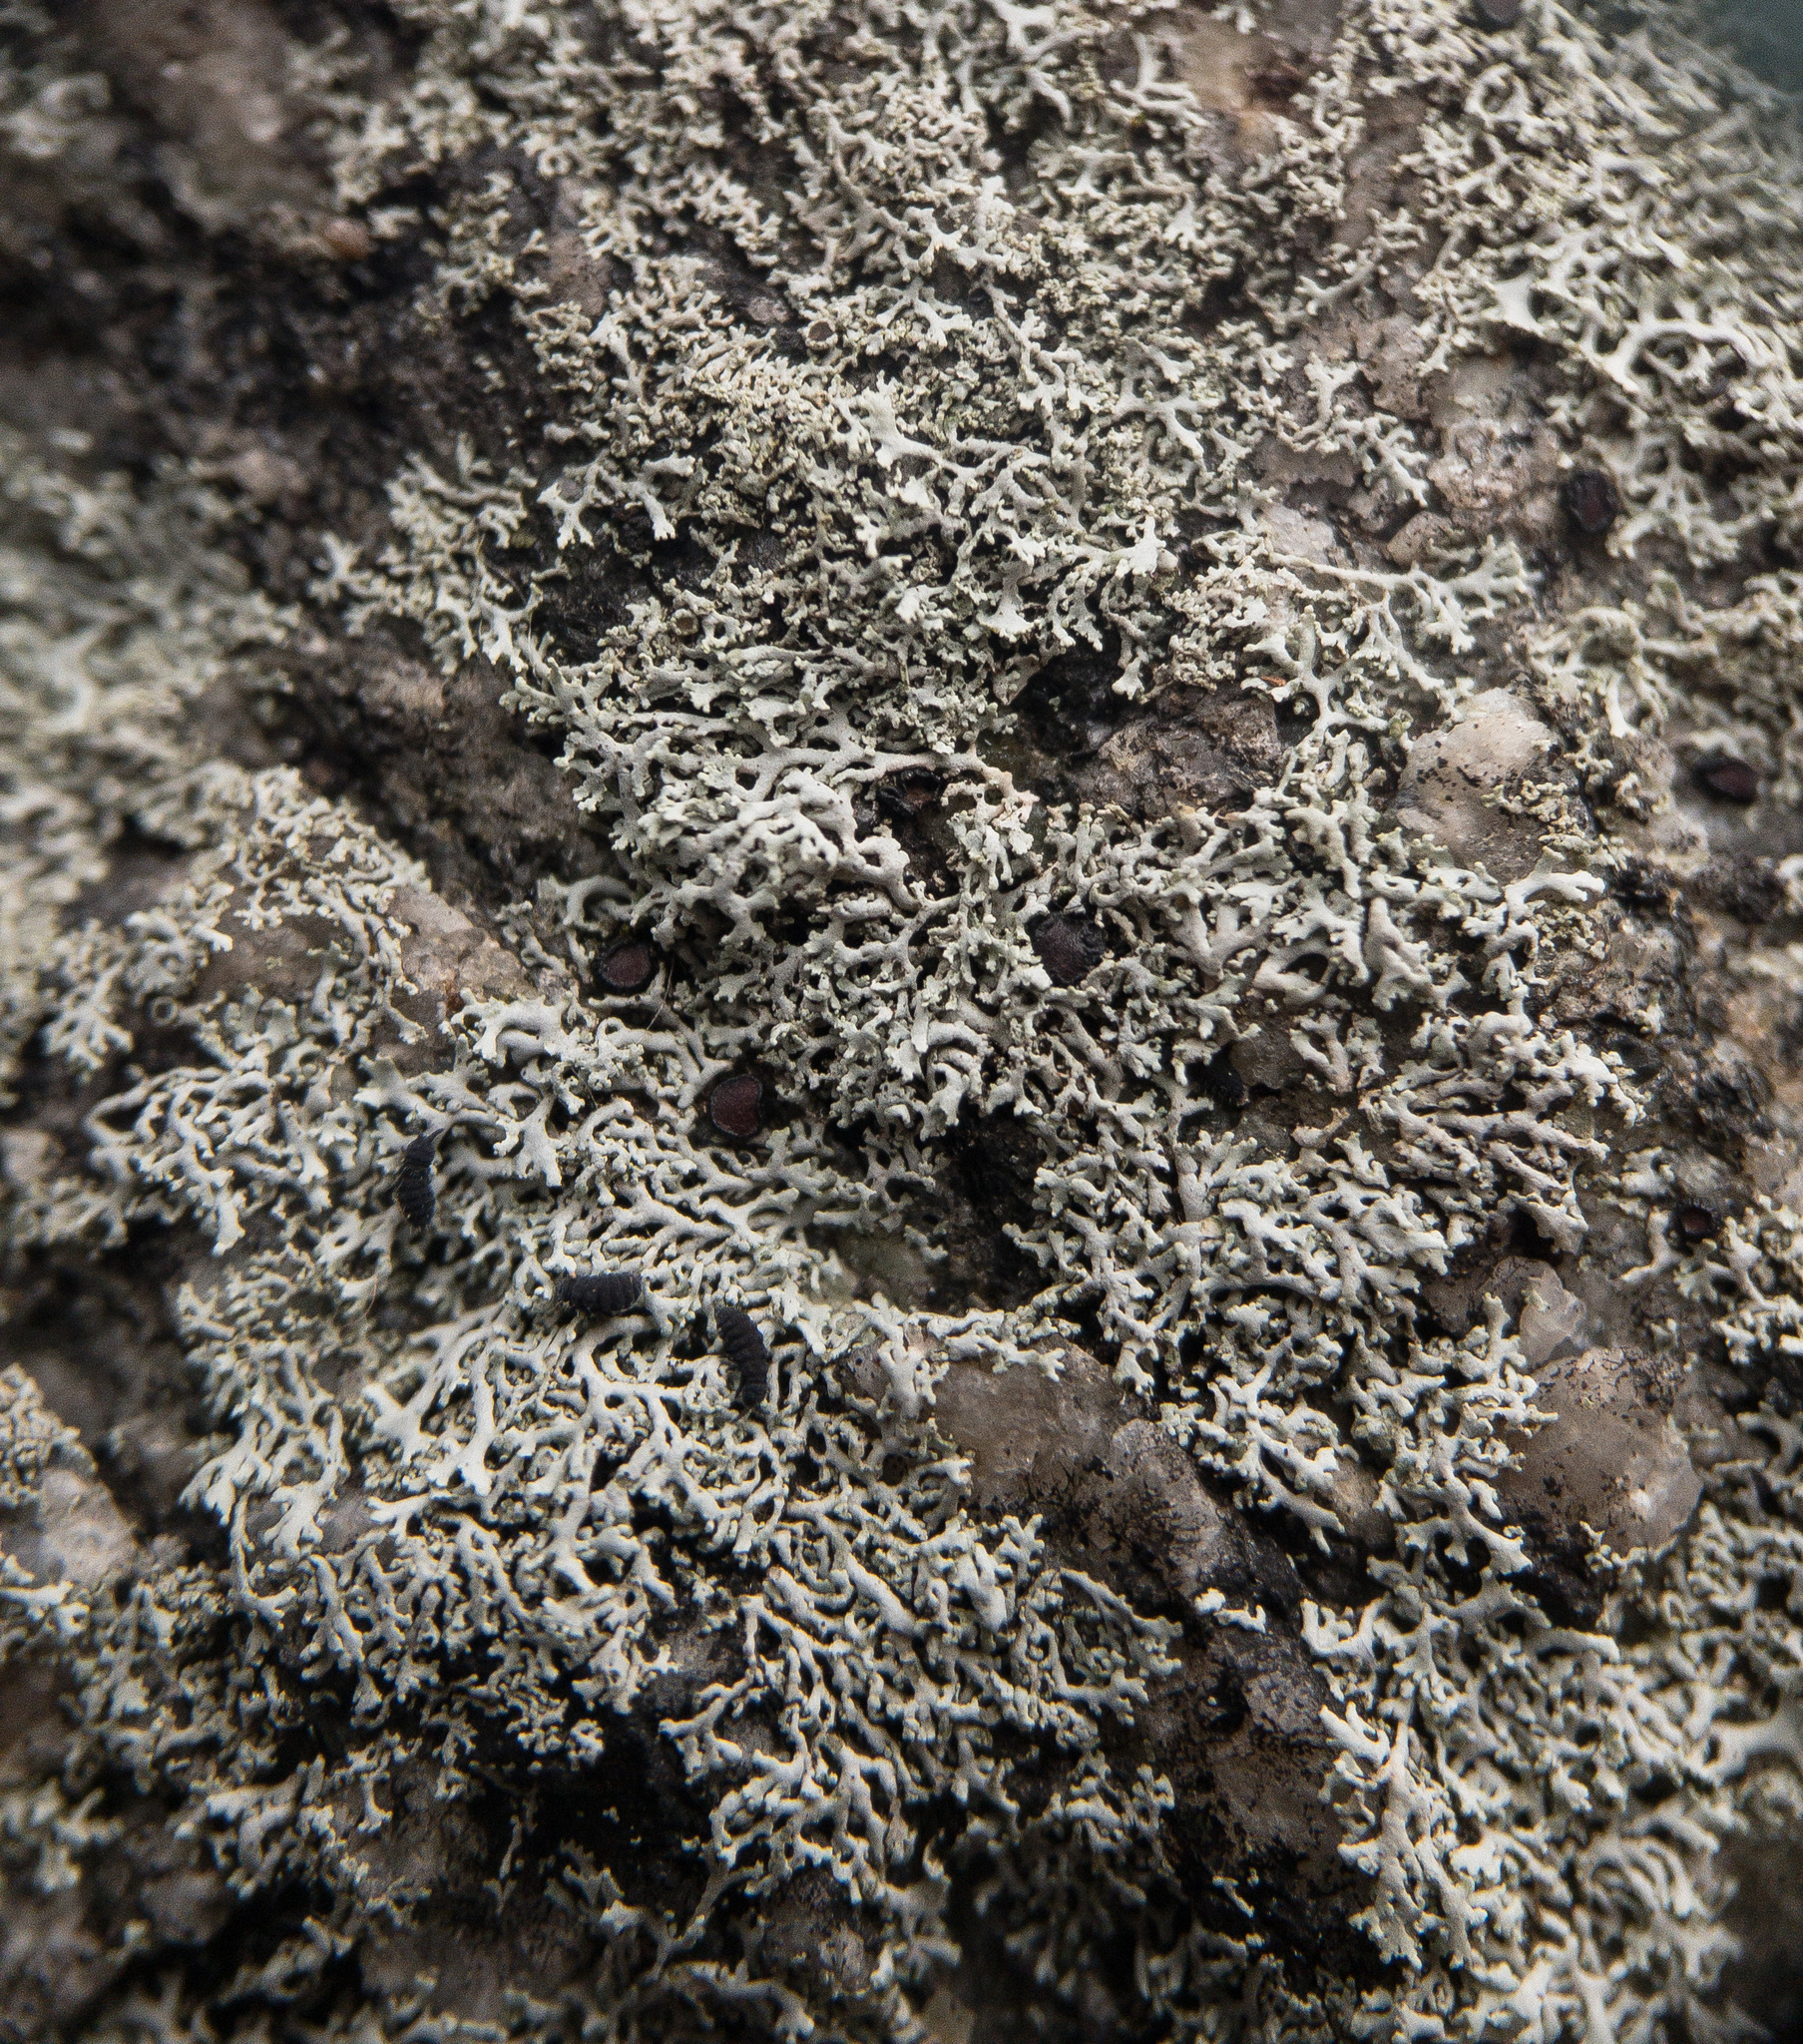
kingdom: Fungi
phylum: Ascomycota
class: Lecanoromycetes
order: Caliciales
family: Physciaceae
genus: Physcia
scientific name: Physcia subtilis
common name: Slender rosette lichen
